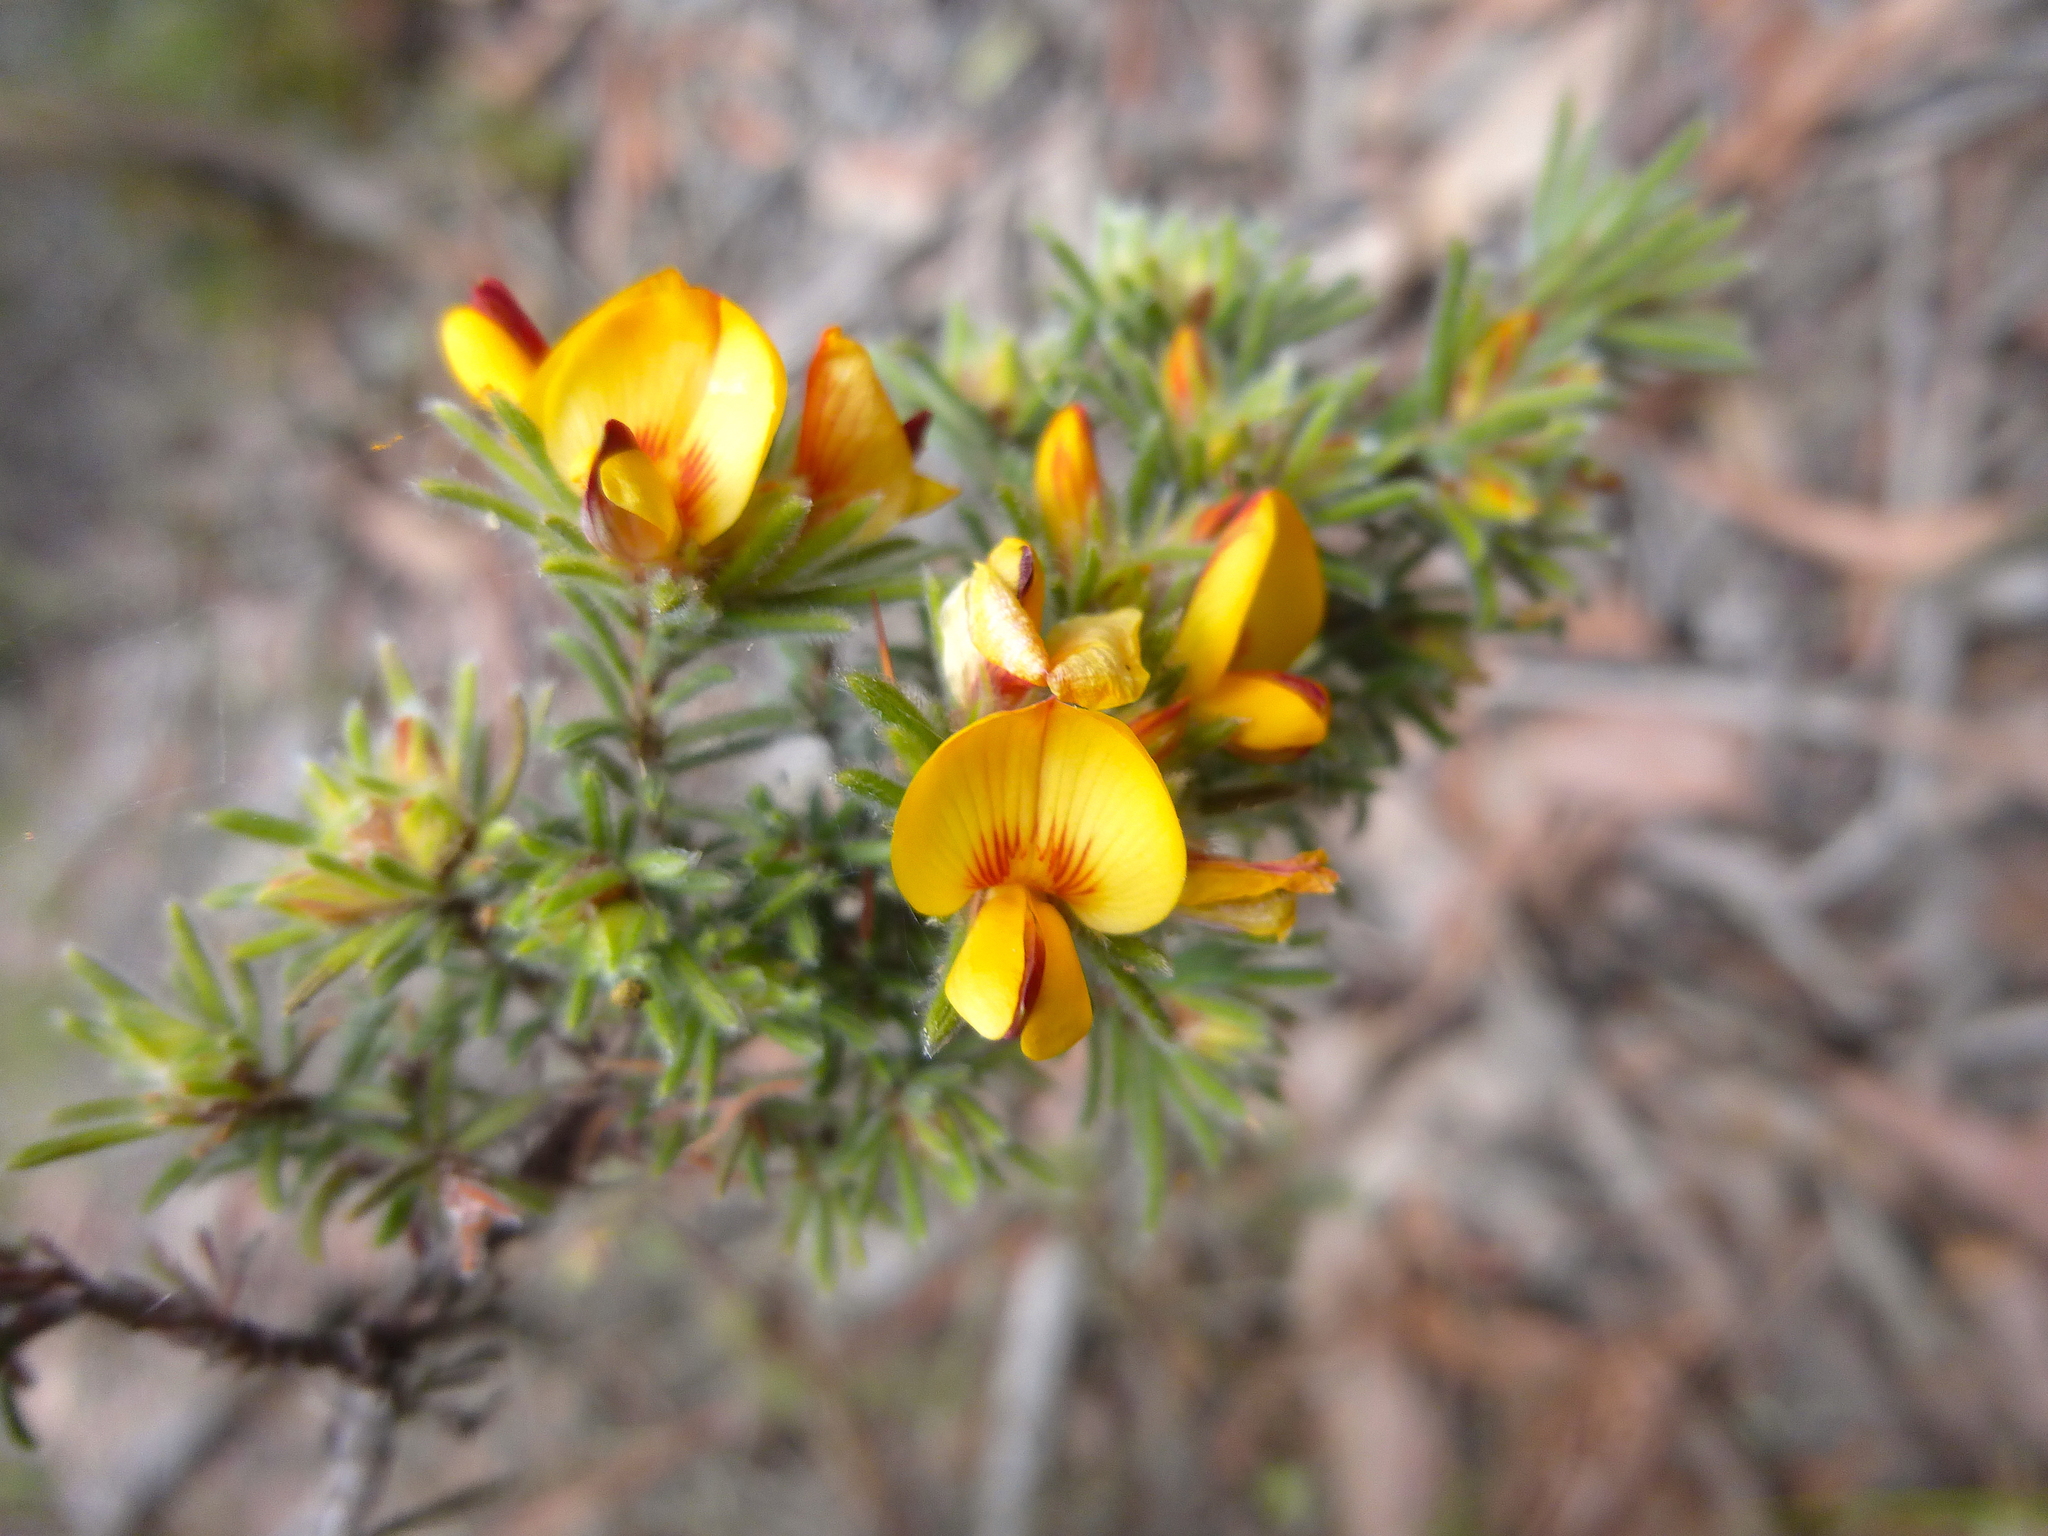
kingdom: Plantae
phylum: Tracheophyta
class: Magnoliopsida
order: Fabales
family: Fabaceae
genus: Pultenaea
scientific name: Pultenaea daltonii
